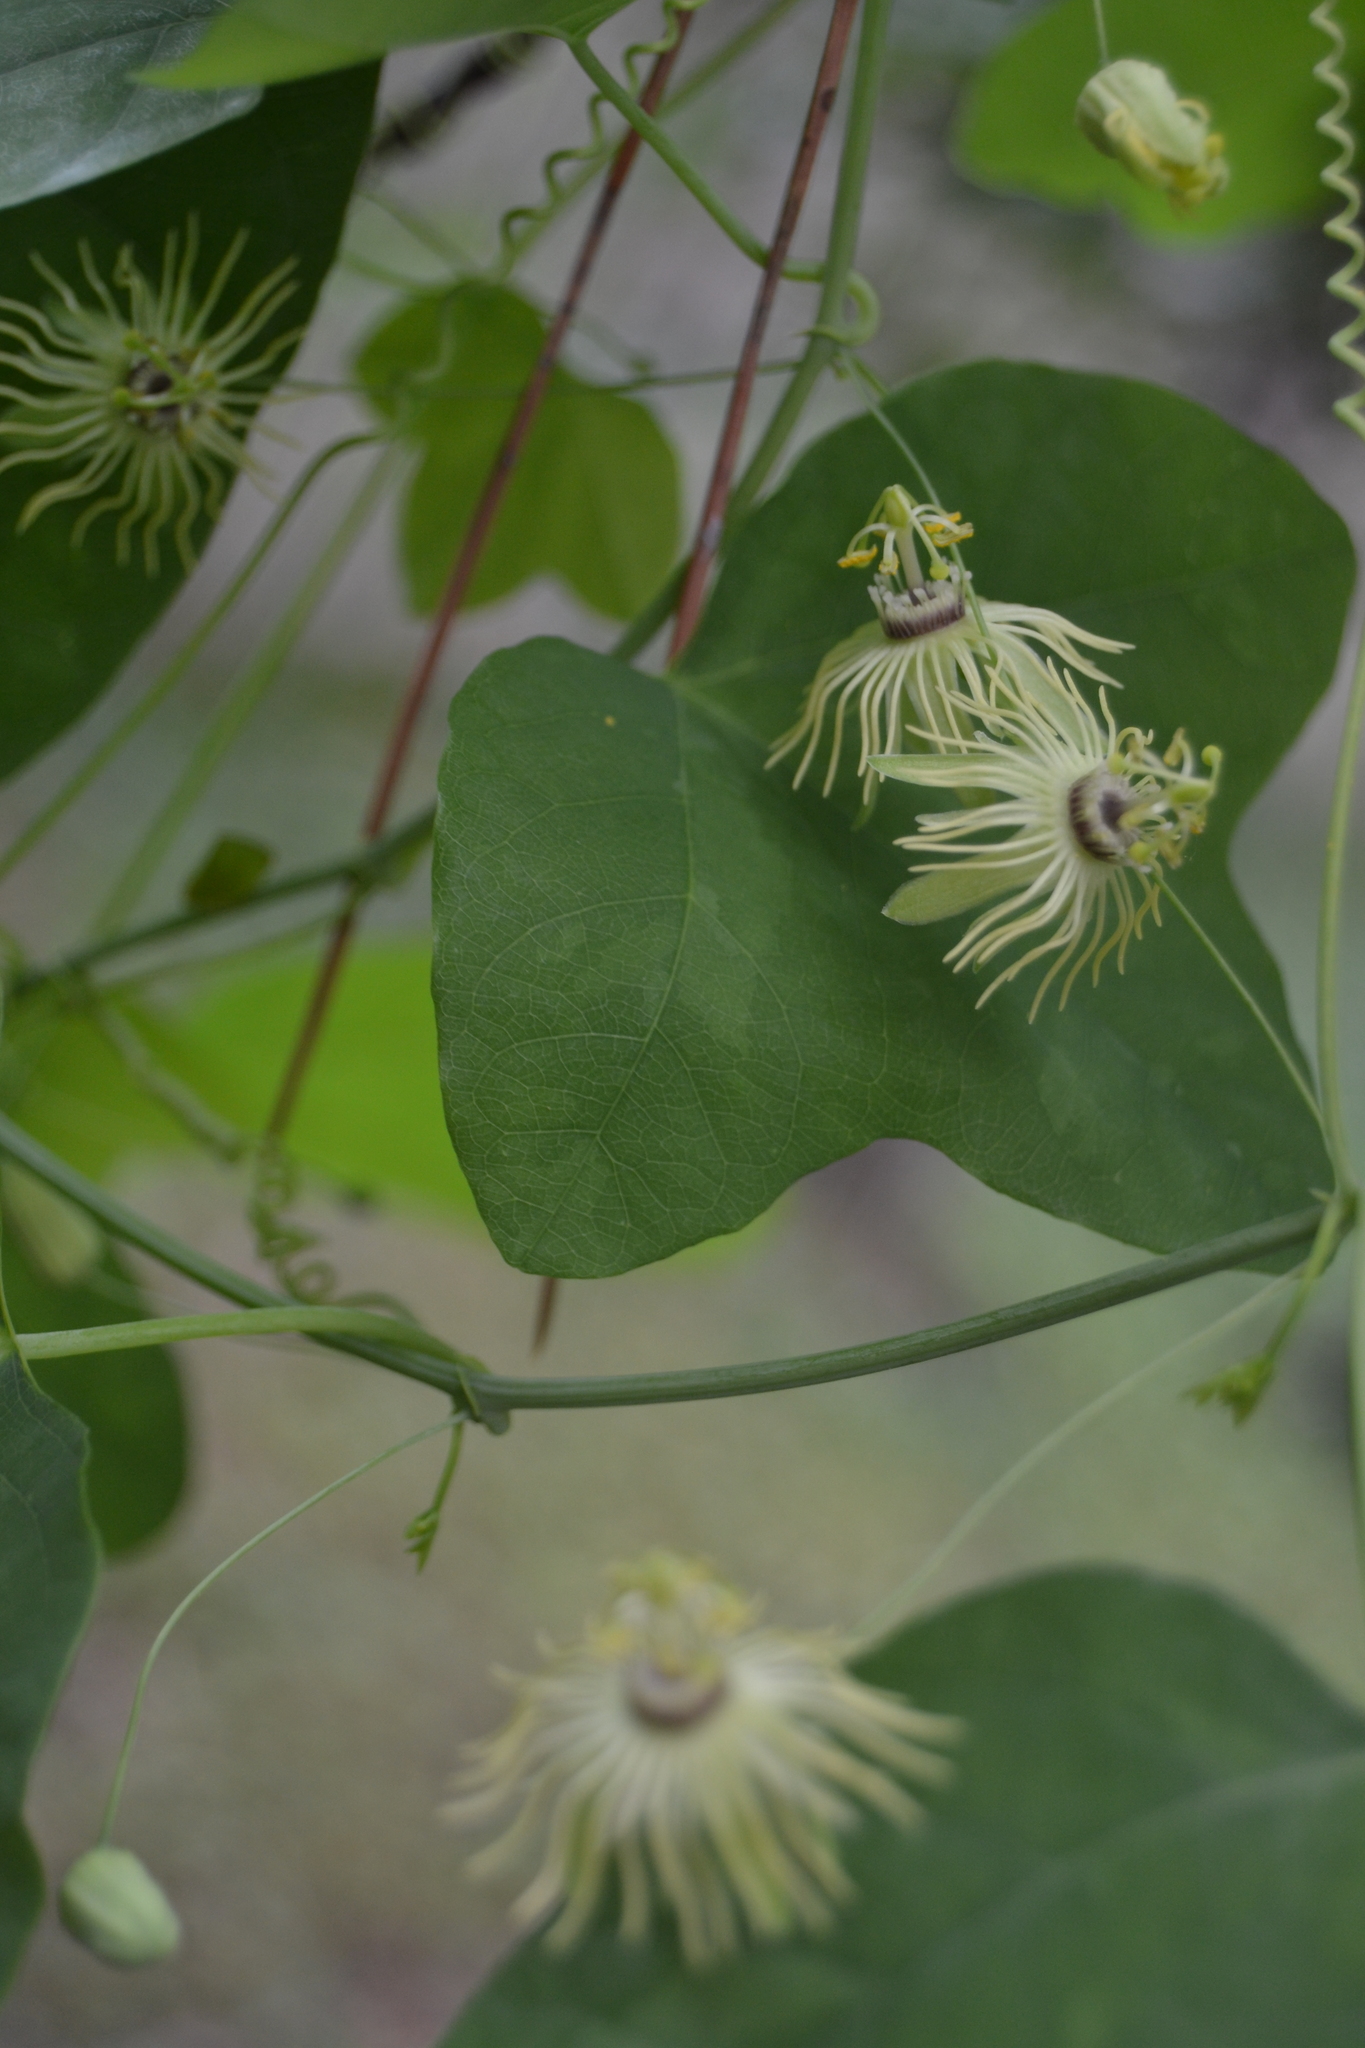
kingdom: Plantae
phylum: Tracheophyta
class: Magnoliopsida
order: Malpighiales
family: Passifloraceae
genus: Passiflora
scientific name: Passiflora lutea
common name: Yellow passionflower
